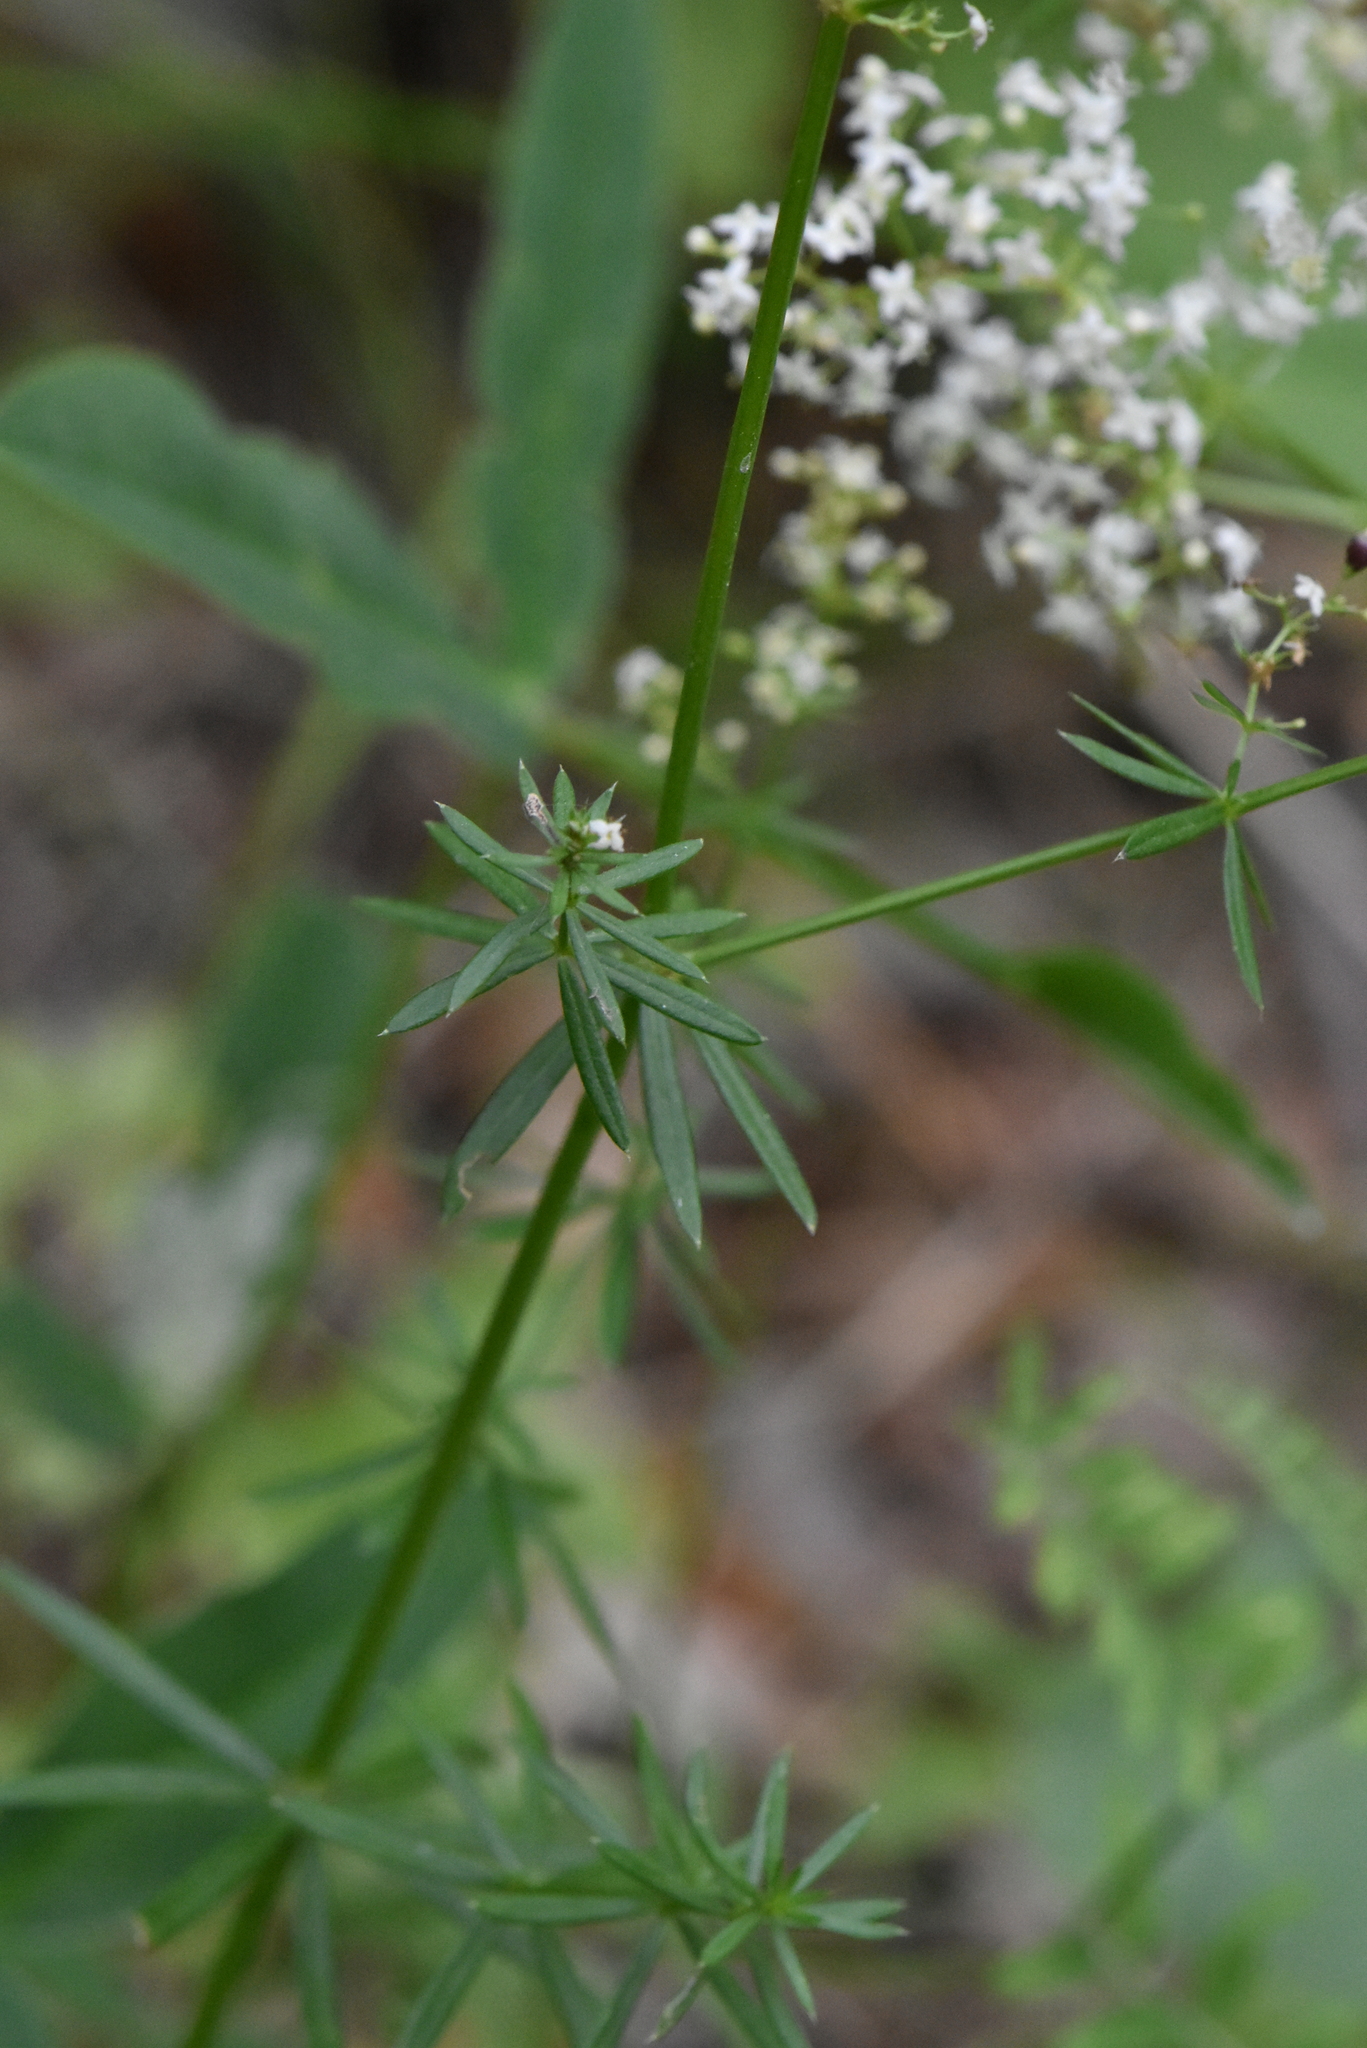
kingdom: Plantae
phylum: Tracheophyta
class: Magnoliopsida
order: Gentianales
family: Rubiaceae
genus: Galium
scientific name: Galium mollugo
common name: Hedge bedstraw
